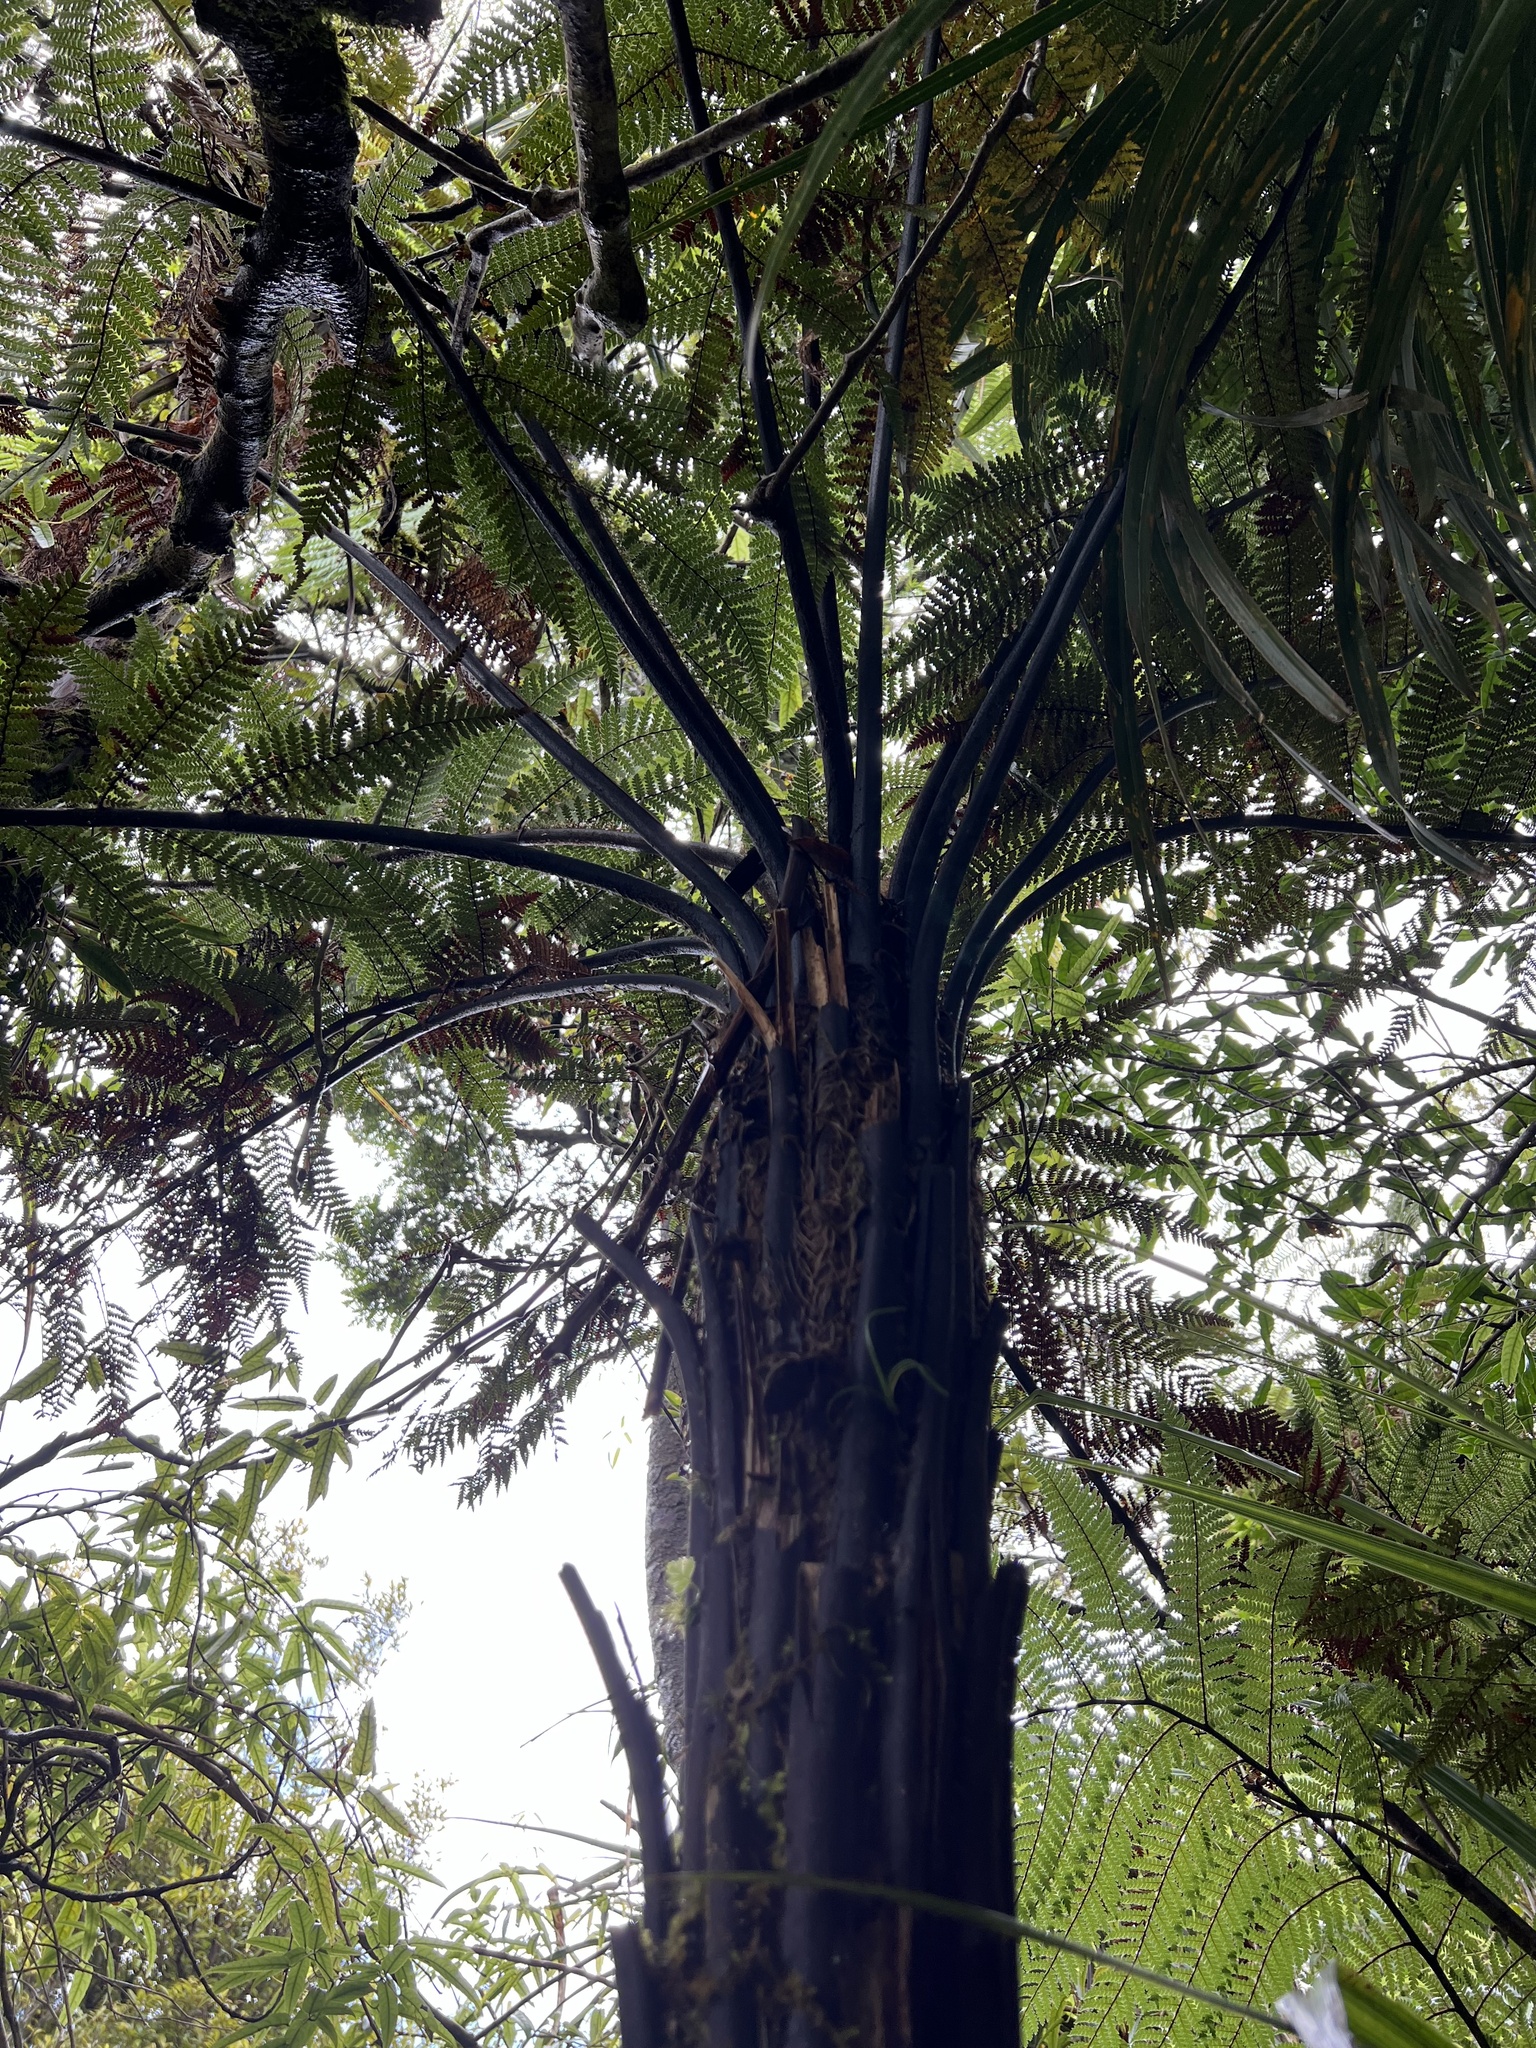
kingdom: Plantae
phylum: Tracheophyta
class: Polypodiopsida
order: Cyatheales
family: Dicksoniaceae
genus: Dicksonia
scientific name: Dicksonia squarrosa
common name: Hard treefern
